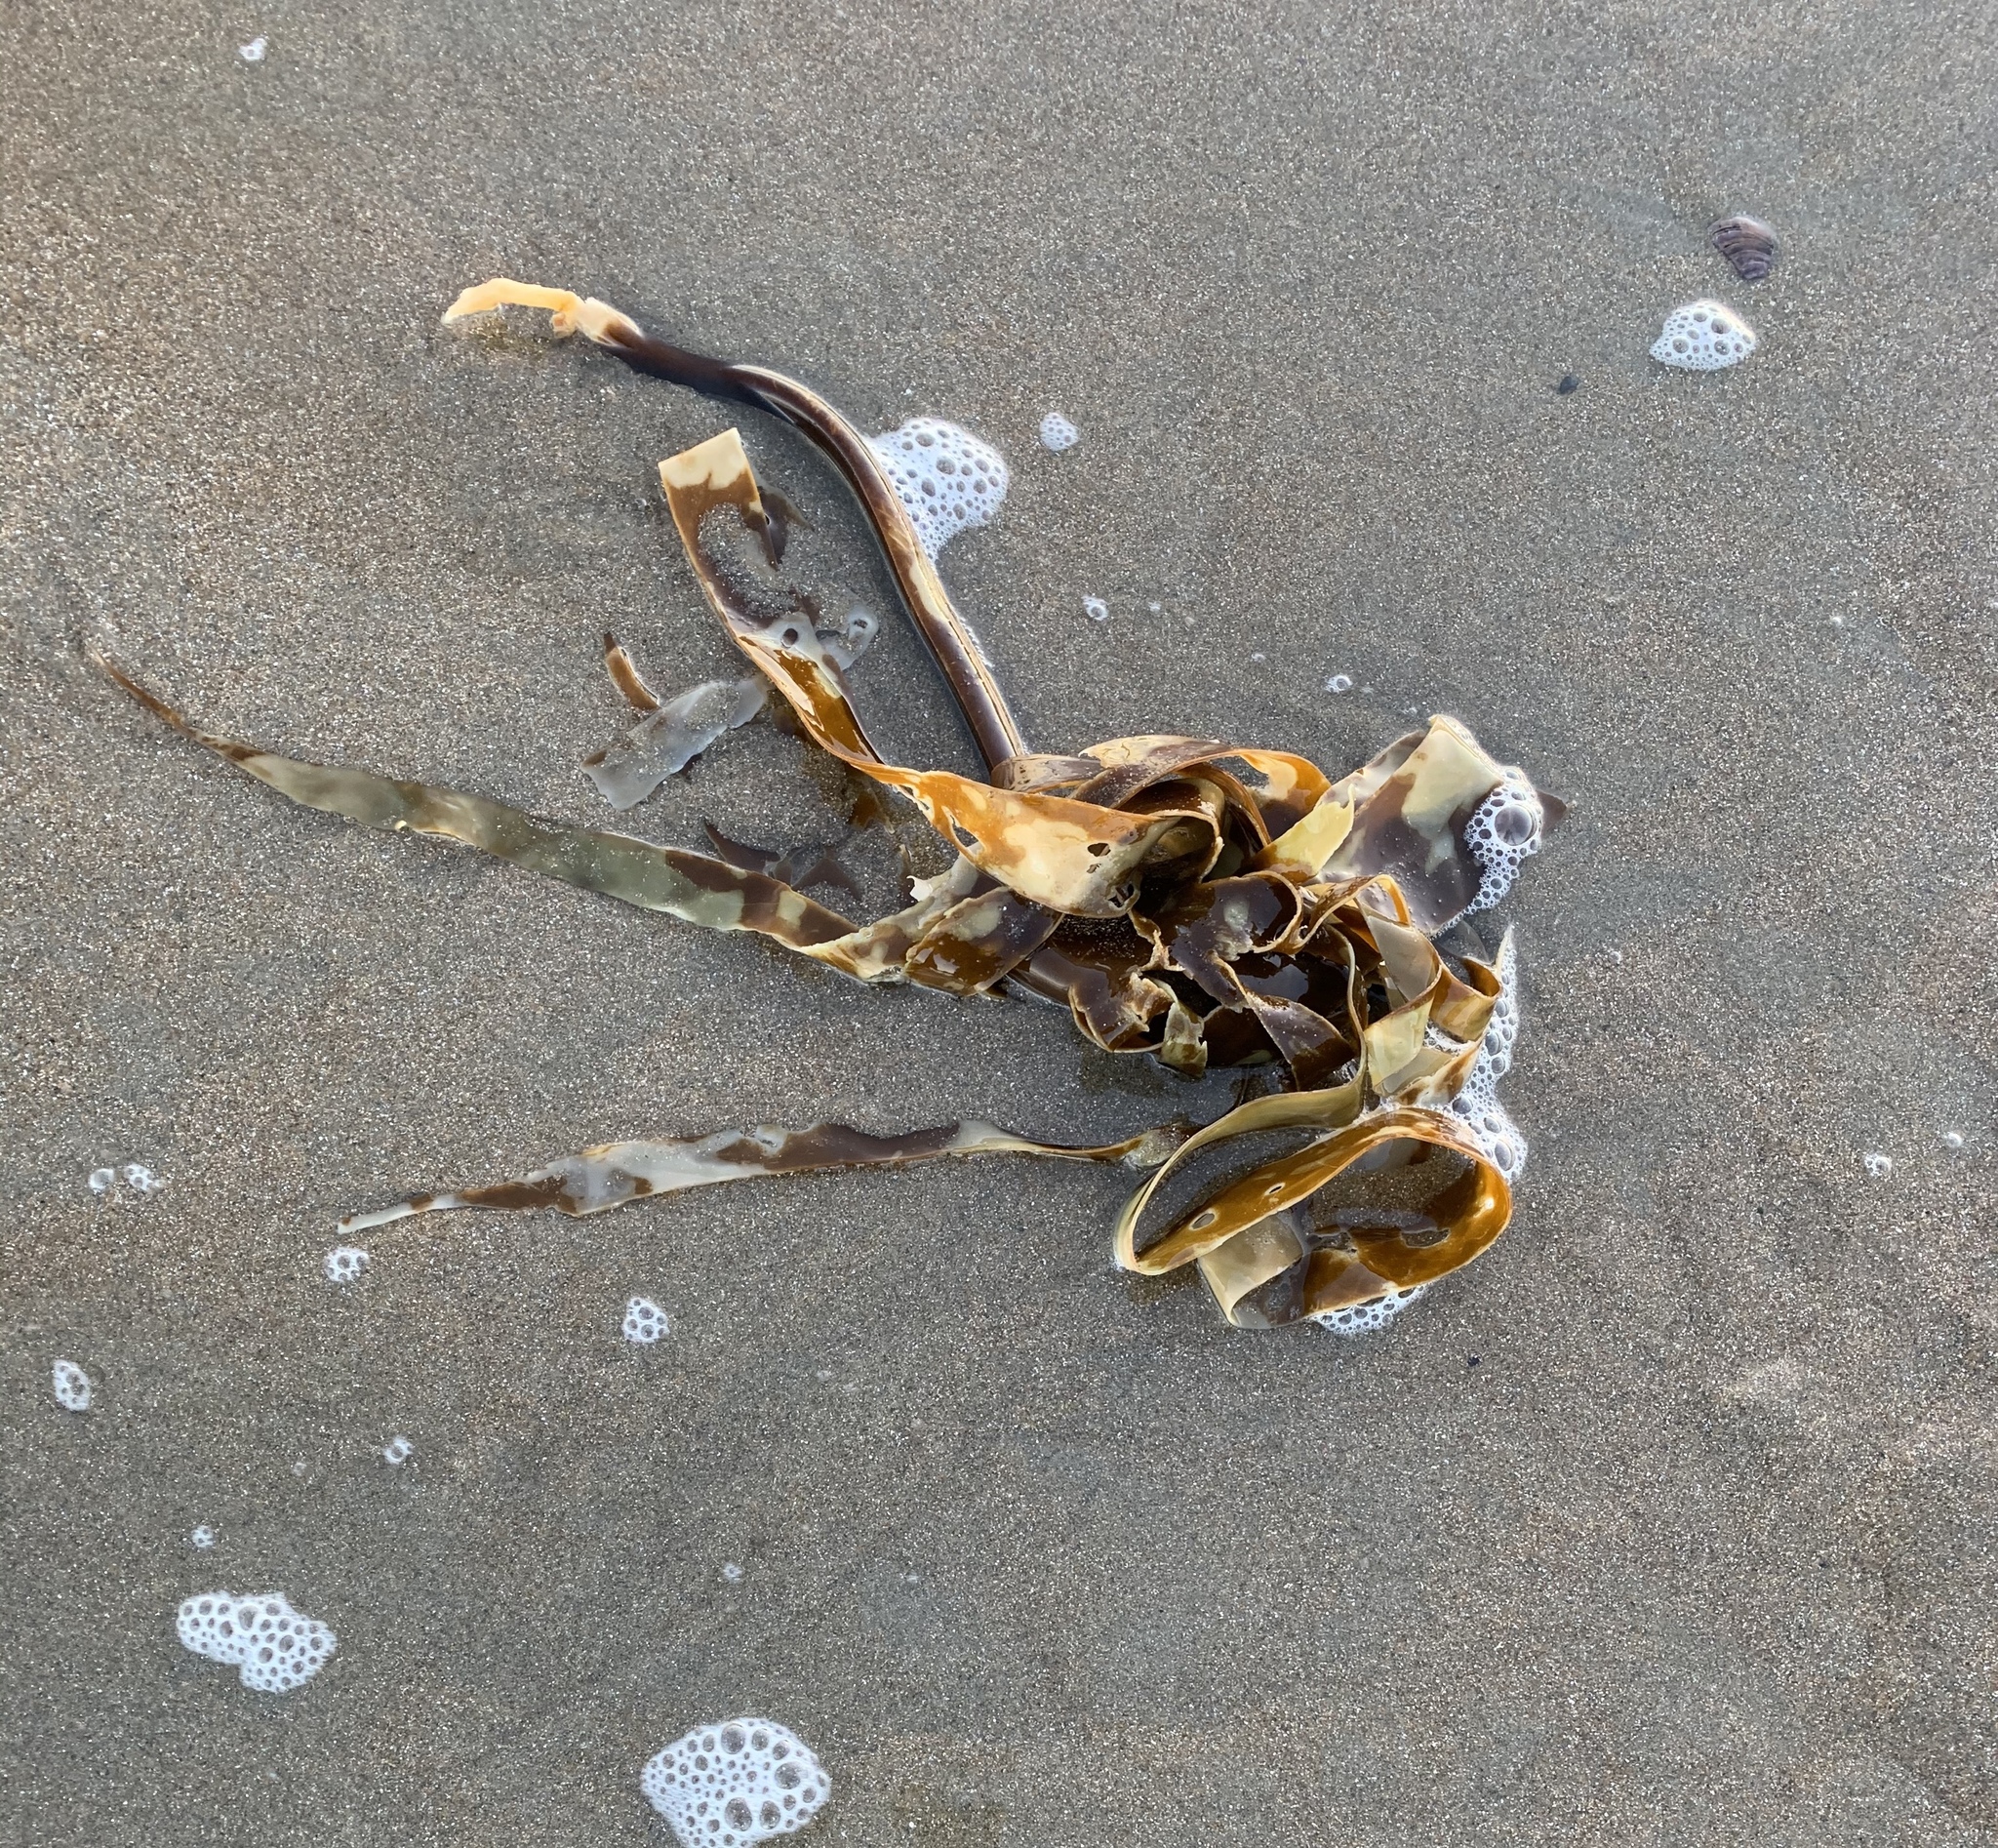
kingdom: Chromista
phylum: Ochrophyta
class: Phaeophyceae
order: Laminariales
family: Laminariaceae
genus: Laminaria
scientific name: Laminaria digitata
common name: Oarweed
